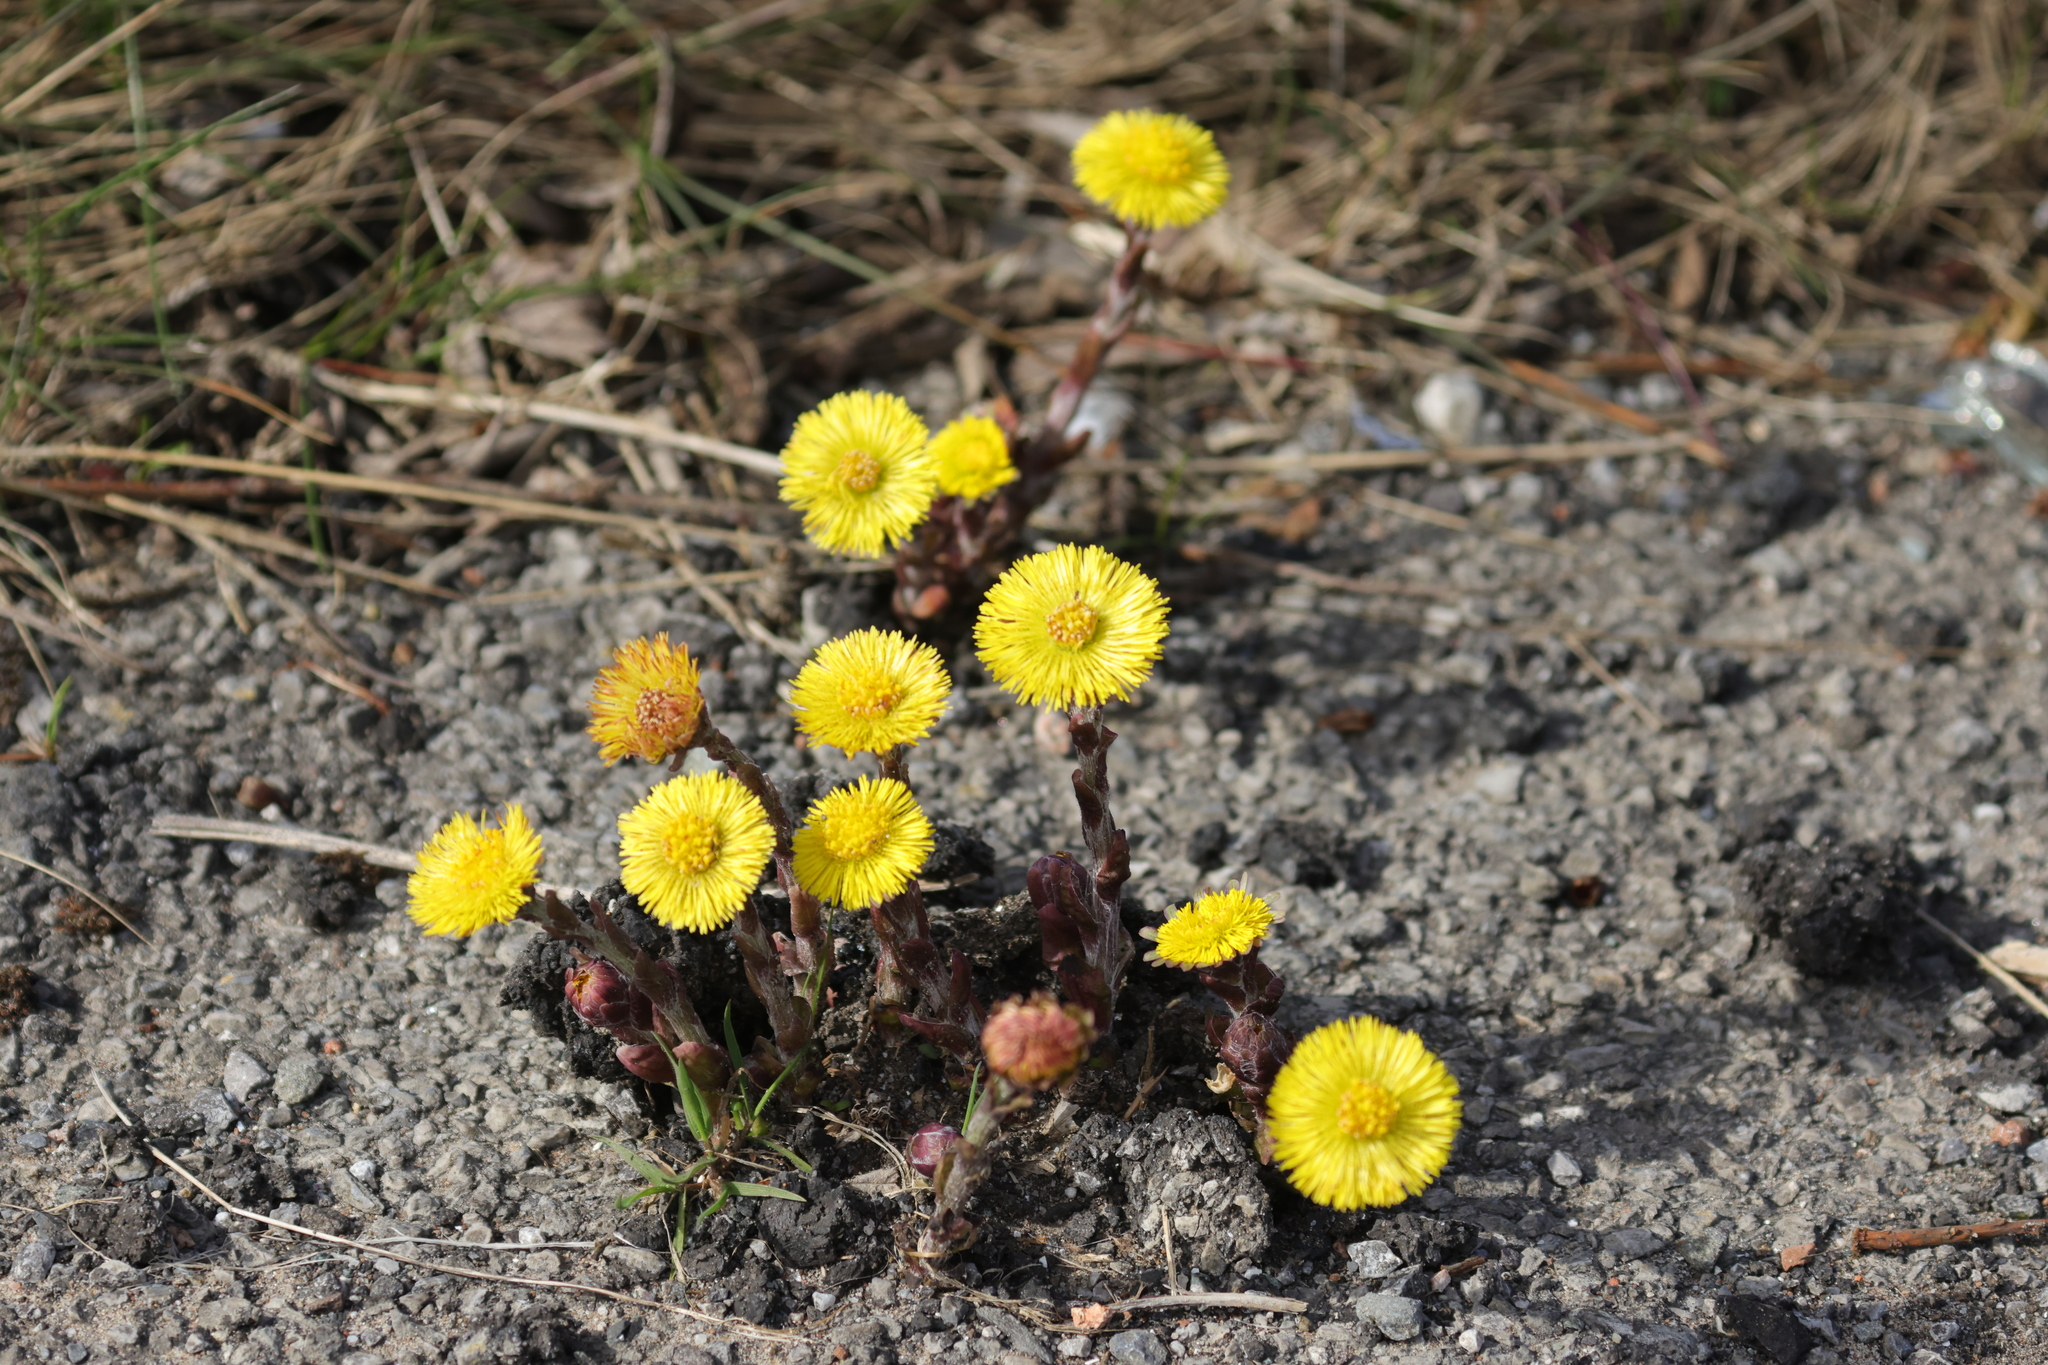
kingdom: Plantae
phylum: Tracheophyta
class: Magnoliopsida
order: Asterales
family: Asteraceae
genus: Tussilago
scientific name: Tussilago farfara
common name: Coltsfoot
